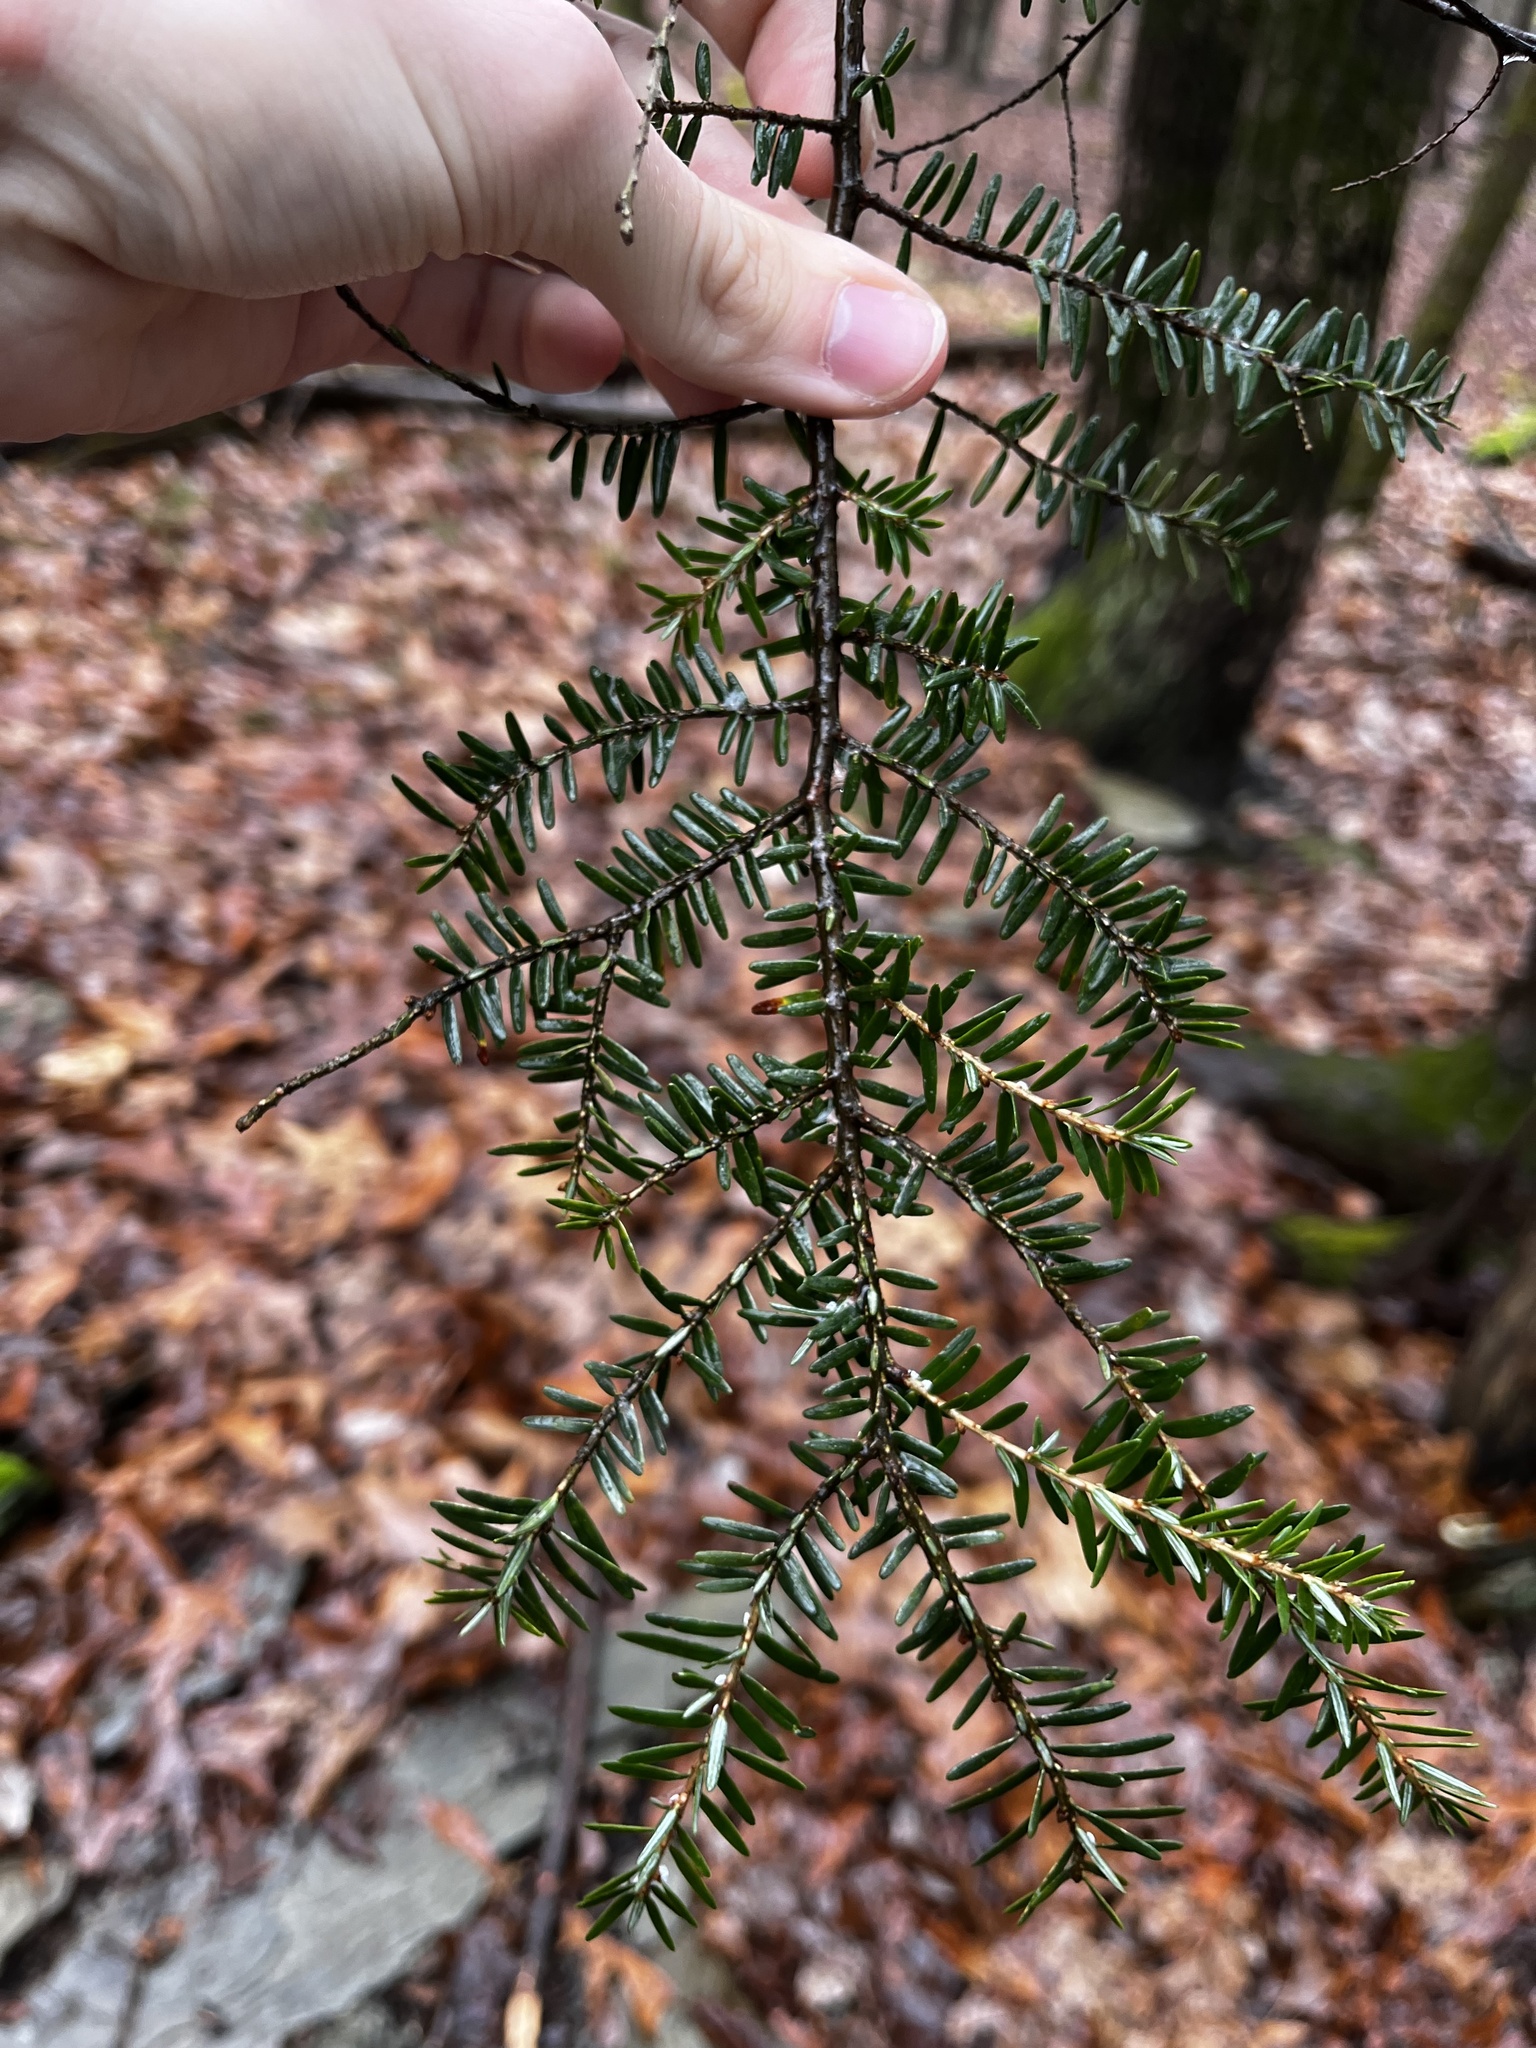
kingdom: Plantae
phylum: Tracheophyta
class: Pinopsida
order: Pinales
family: Pinaceae
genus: Tsuga
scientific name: Tsuga canadensis
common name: Eastern hemlock
